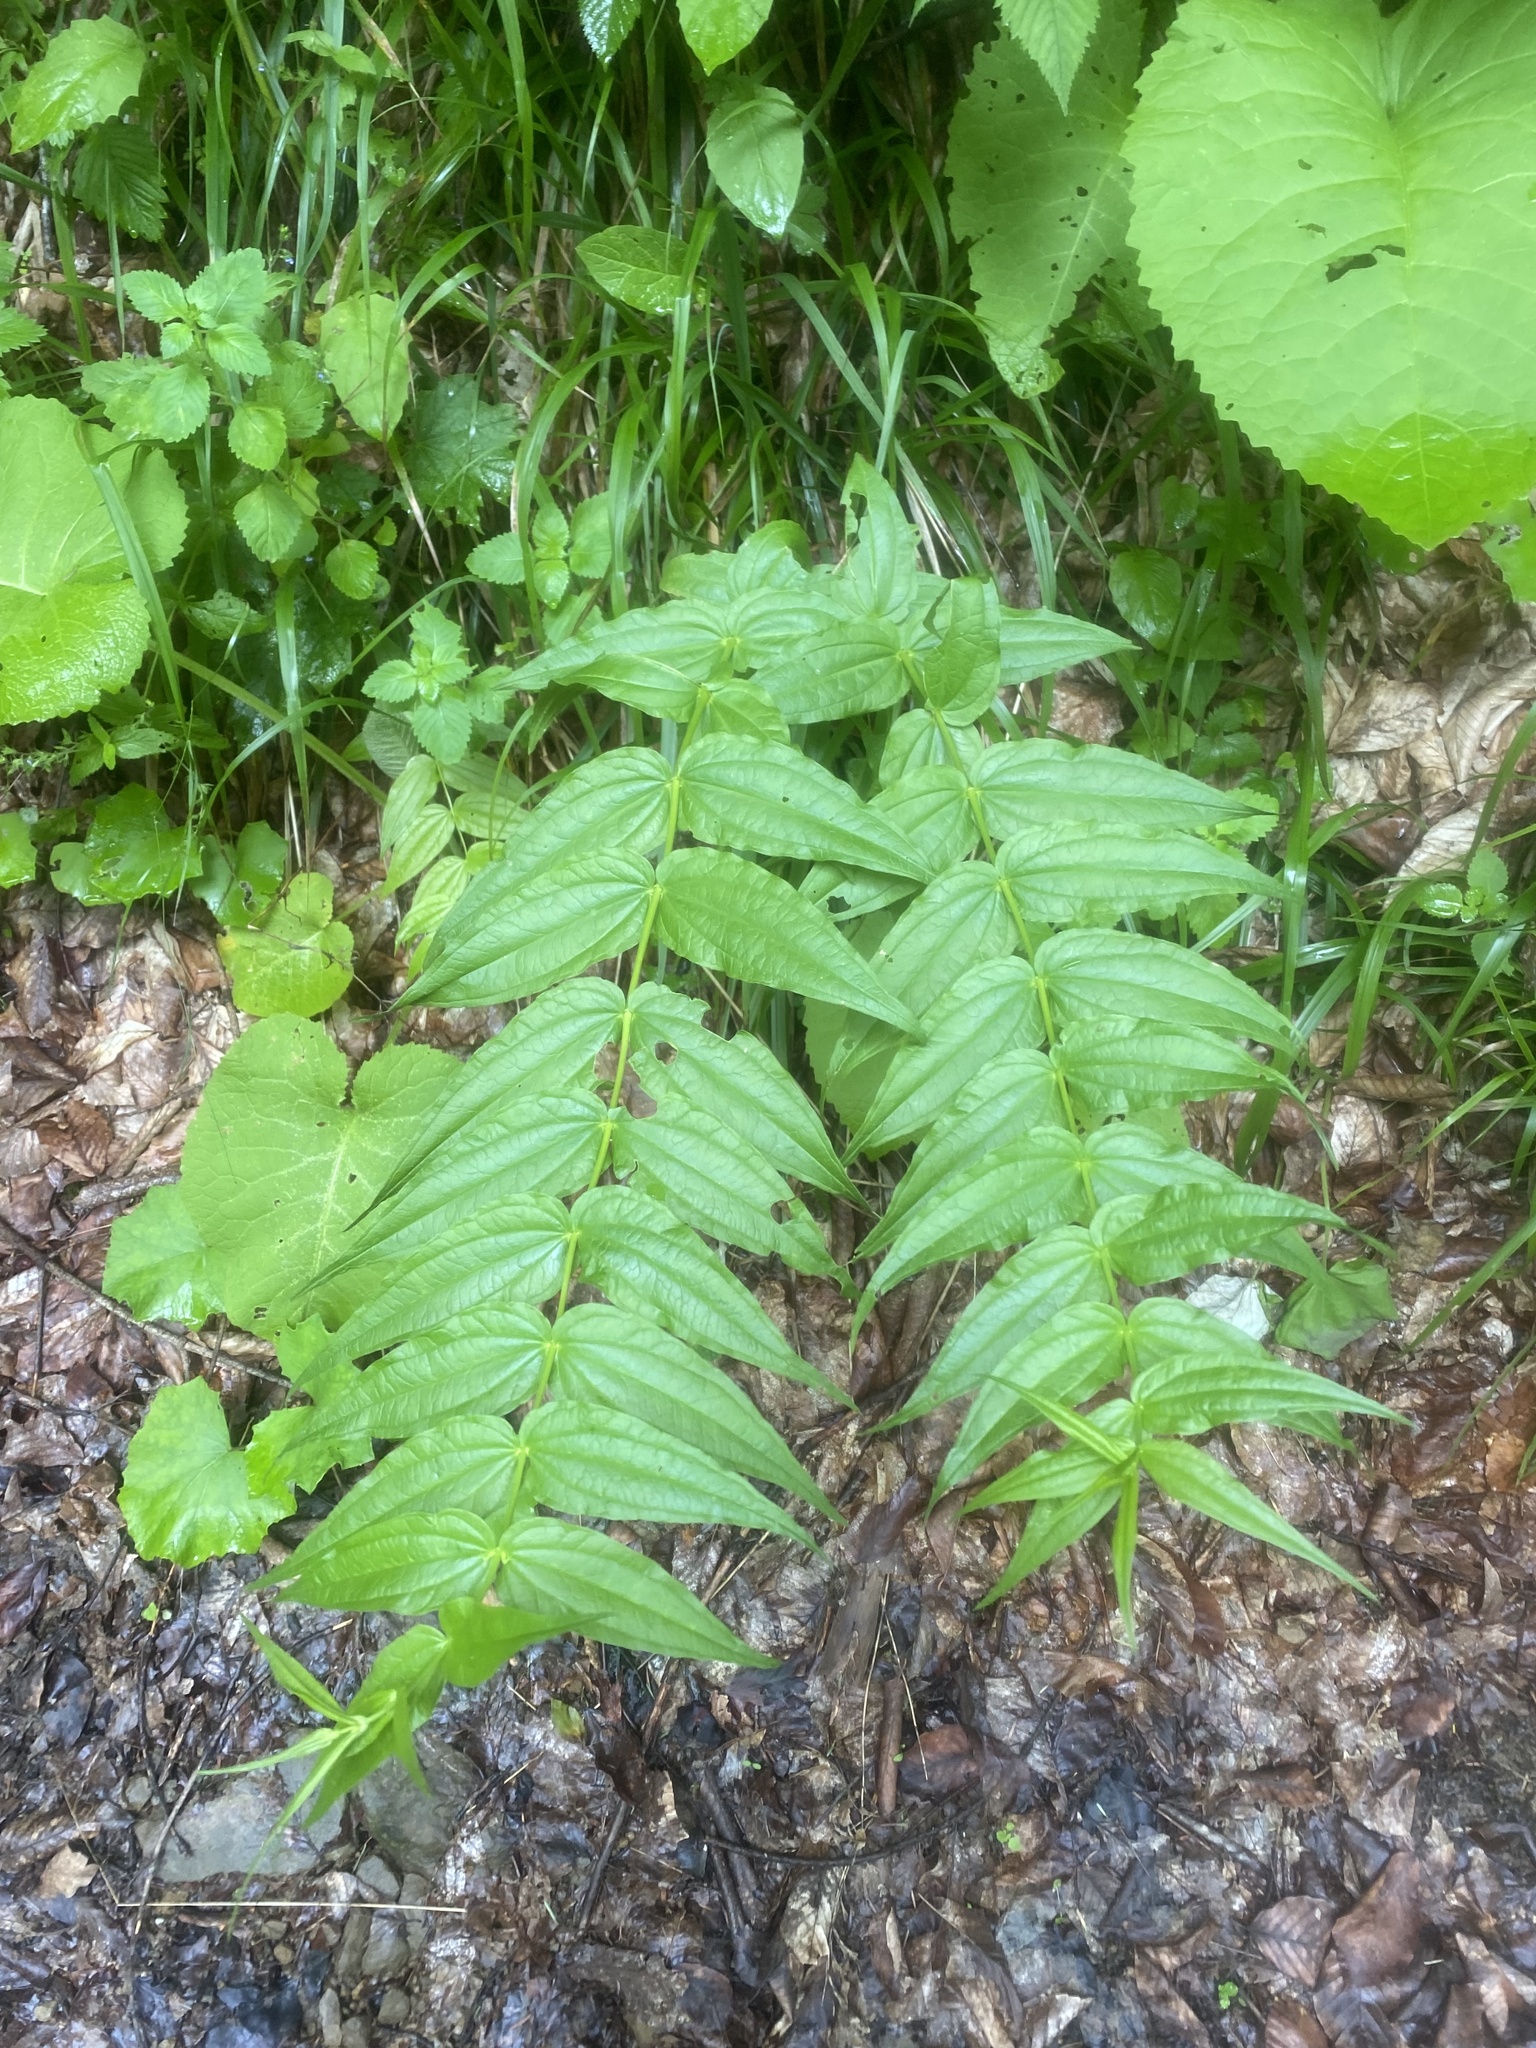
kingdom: Plantae
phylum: Tracheophyta
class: Magnoliopsida
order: Gentianales
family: Gentianaceae
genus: Gentiana
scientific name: Gentiana asclepiadea
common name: Willow gentian
